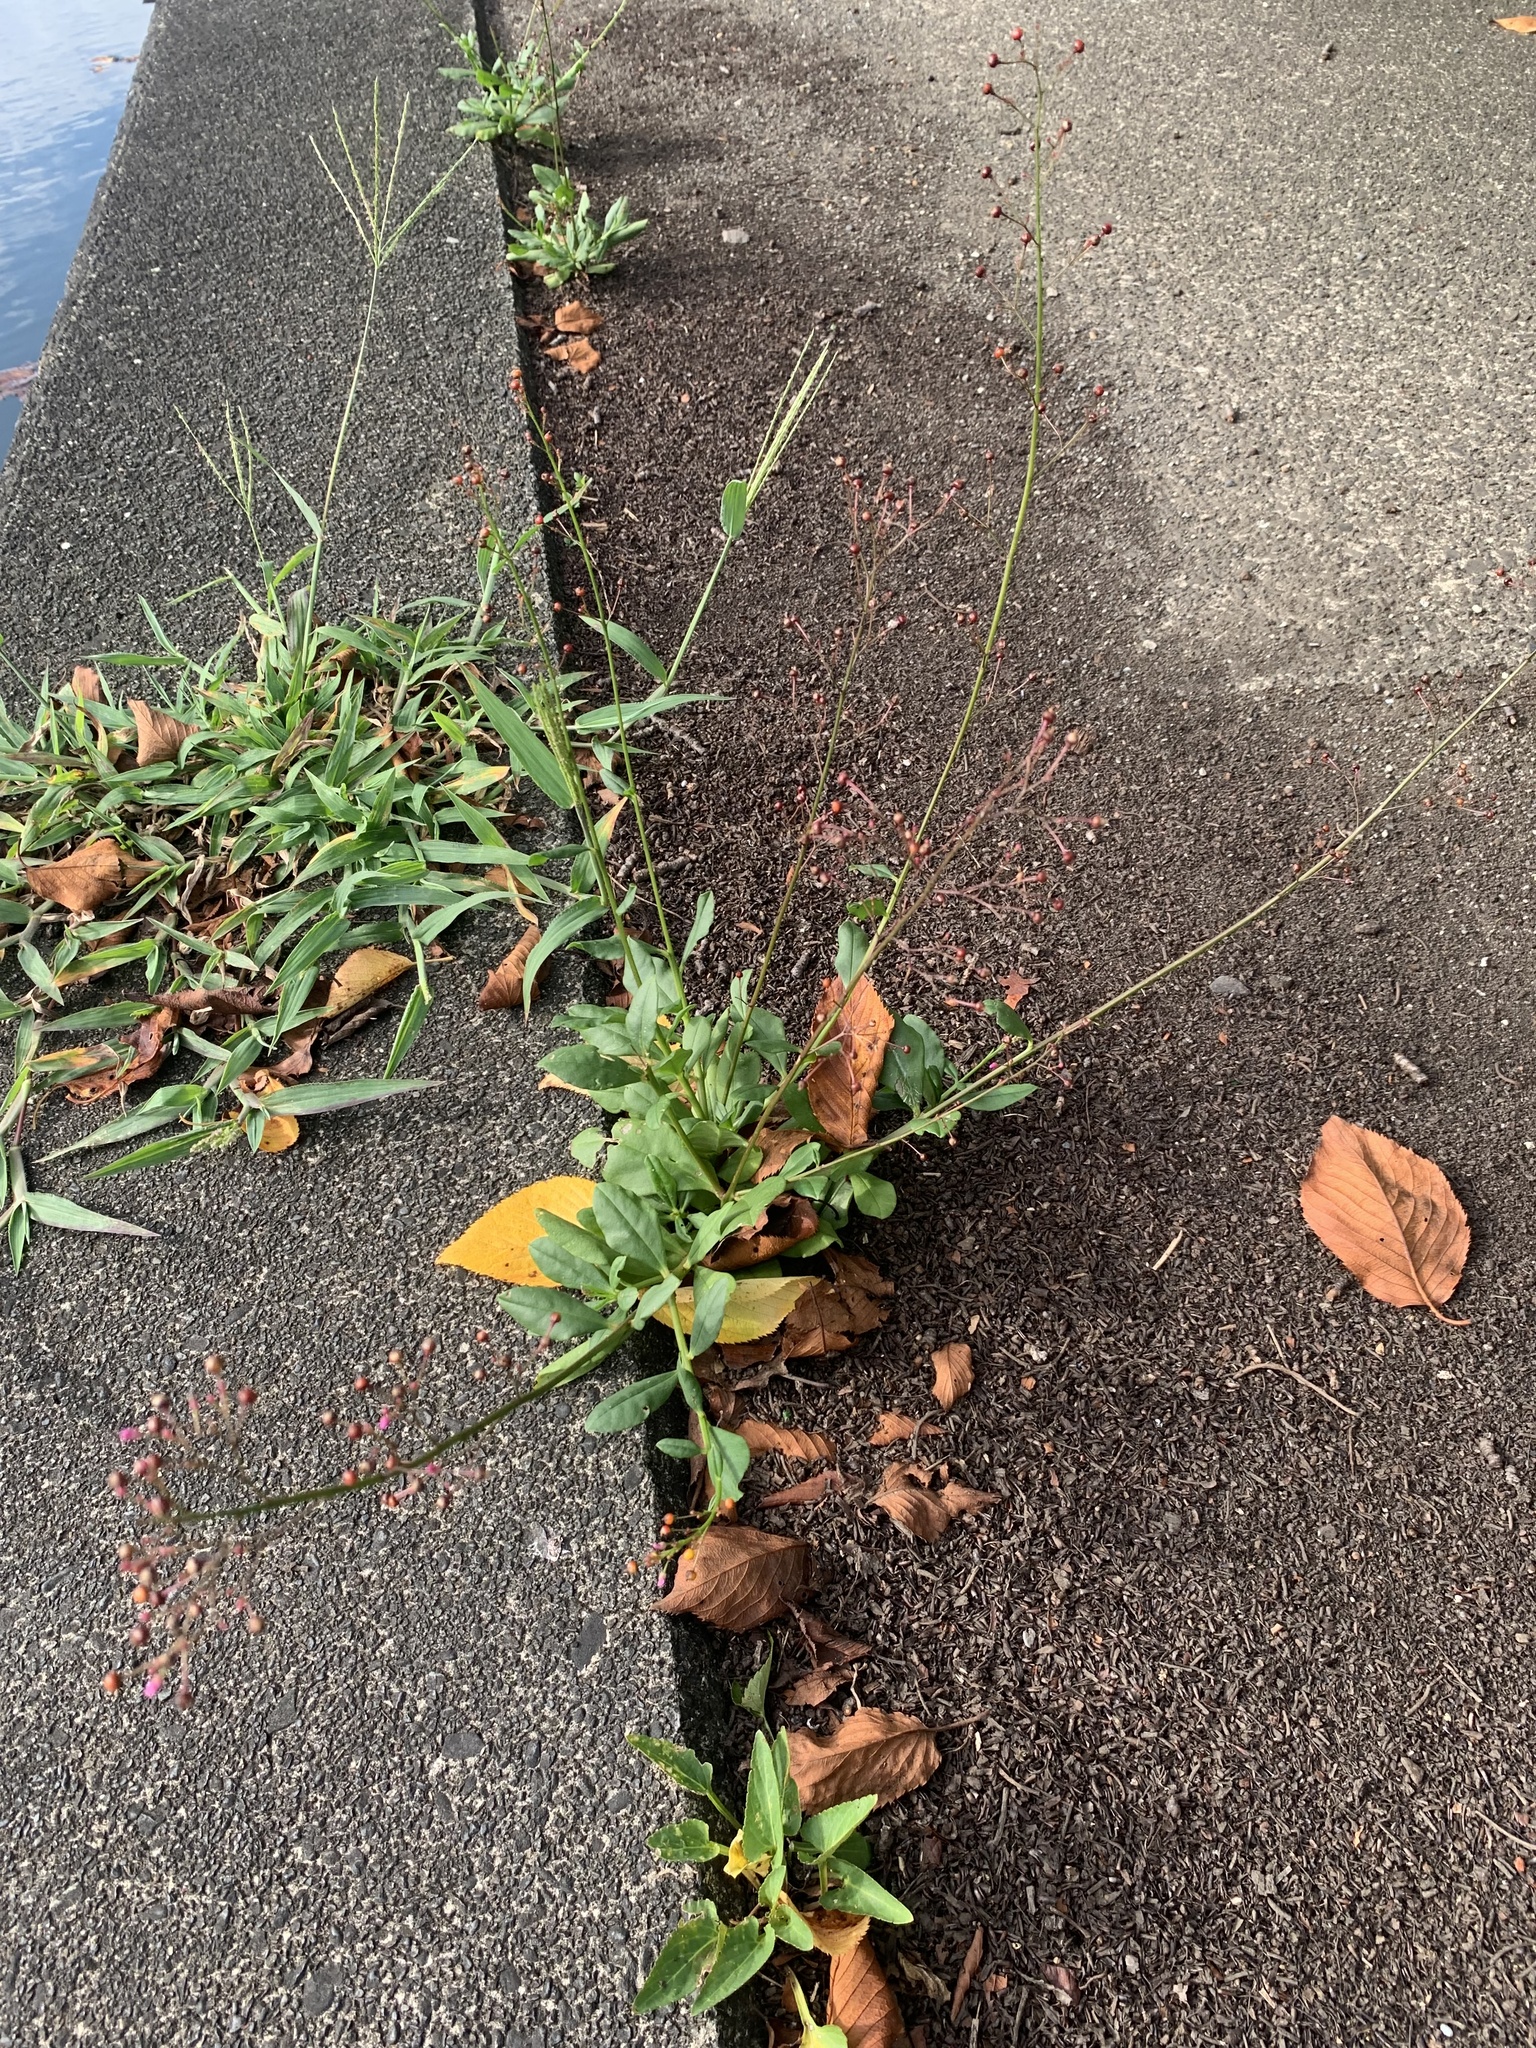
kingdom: Plantae
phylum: Tracheophyta
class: Magnoliopsida
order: Caryophyllales
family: Talinaceae
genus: Talinum
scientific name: Talinum paniculatum
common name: Jewels of opar
